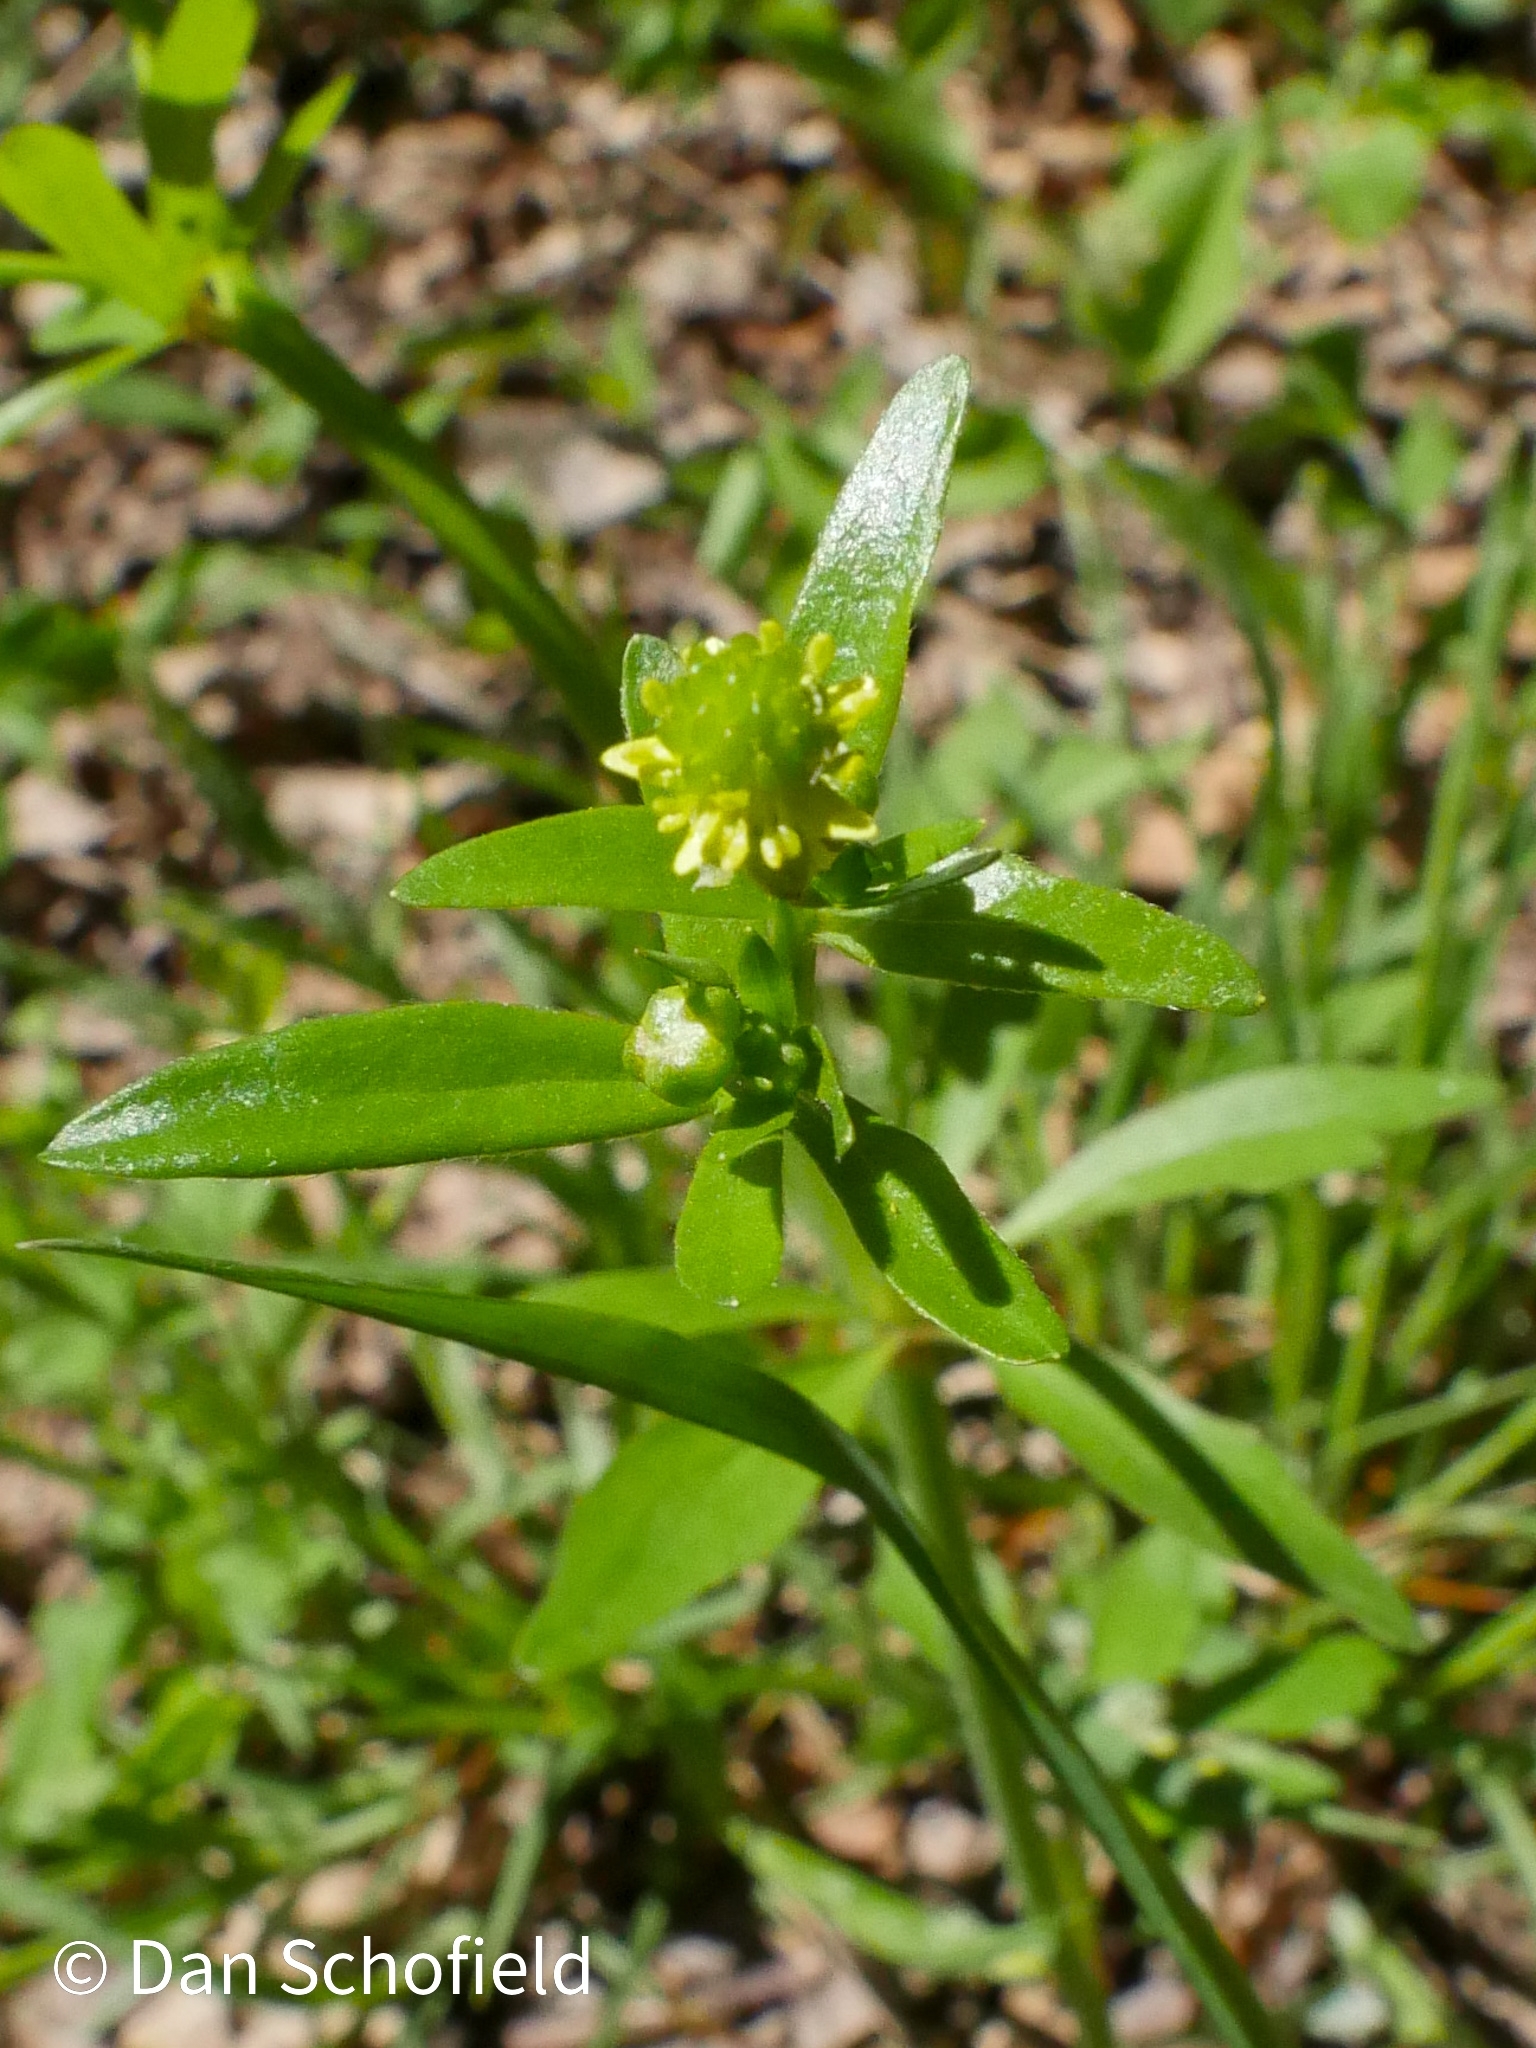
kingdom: Plantae
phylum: Tracheophyta
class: Magnoliopsida
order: Ranunculales
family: Ranunculaceae
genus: Ranunculus
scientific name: Ranunculus abortivus
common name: Early wood buttercup
